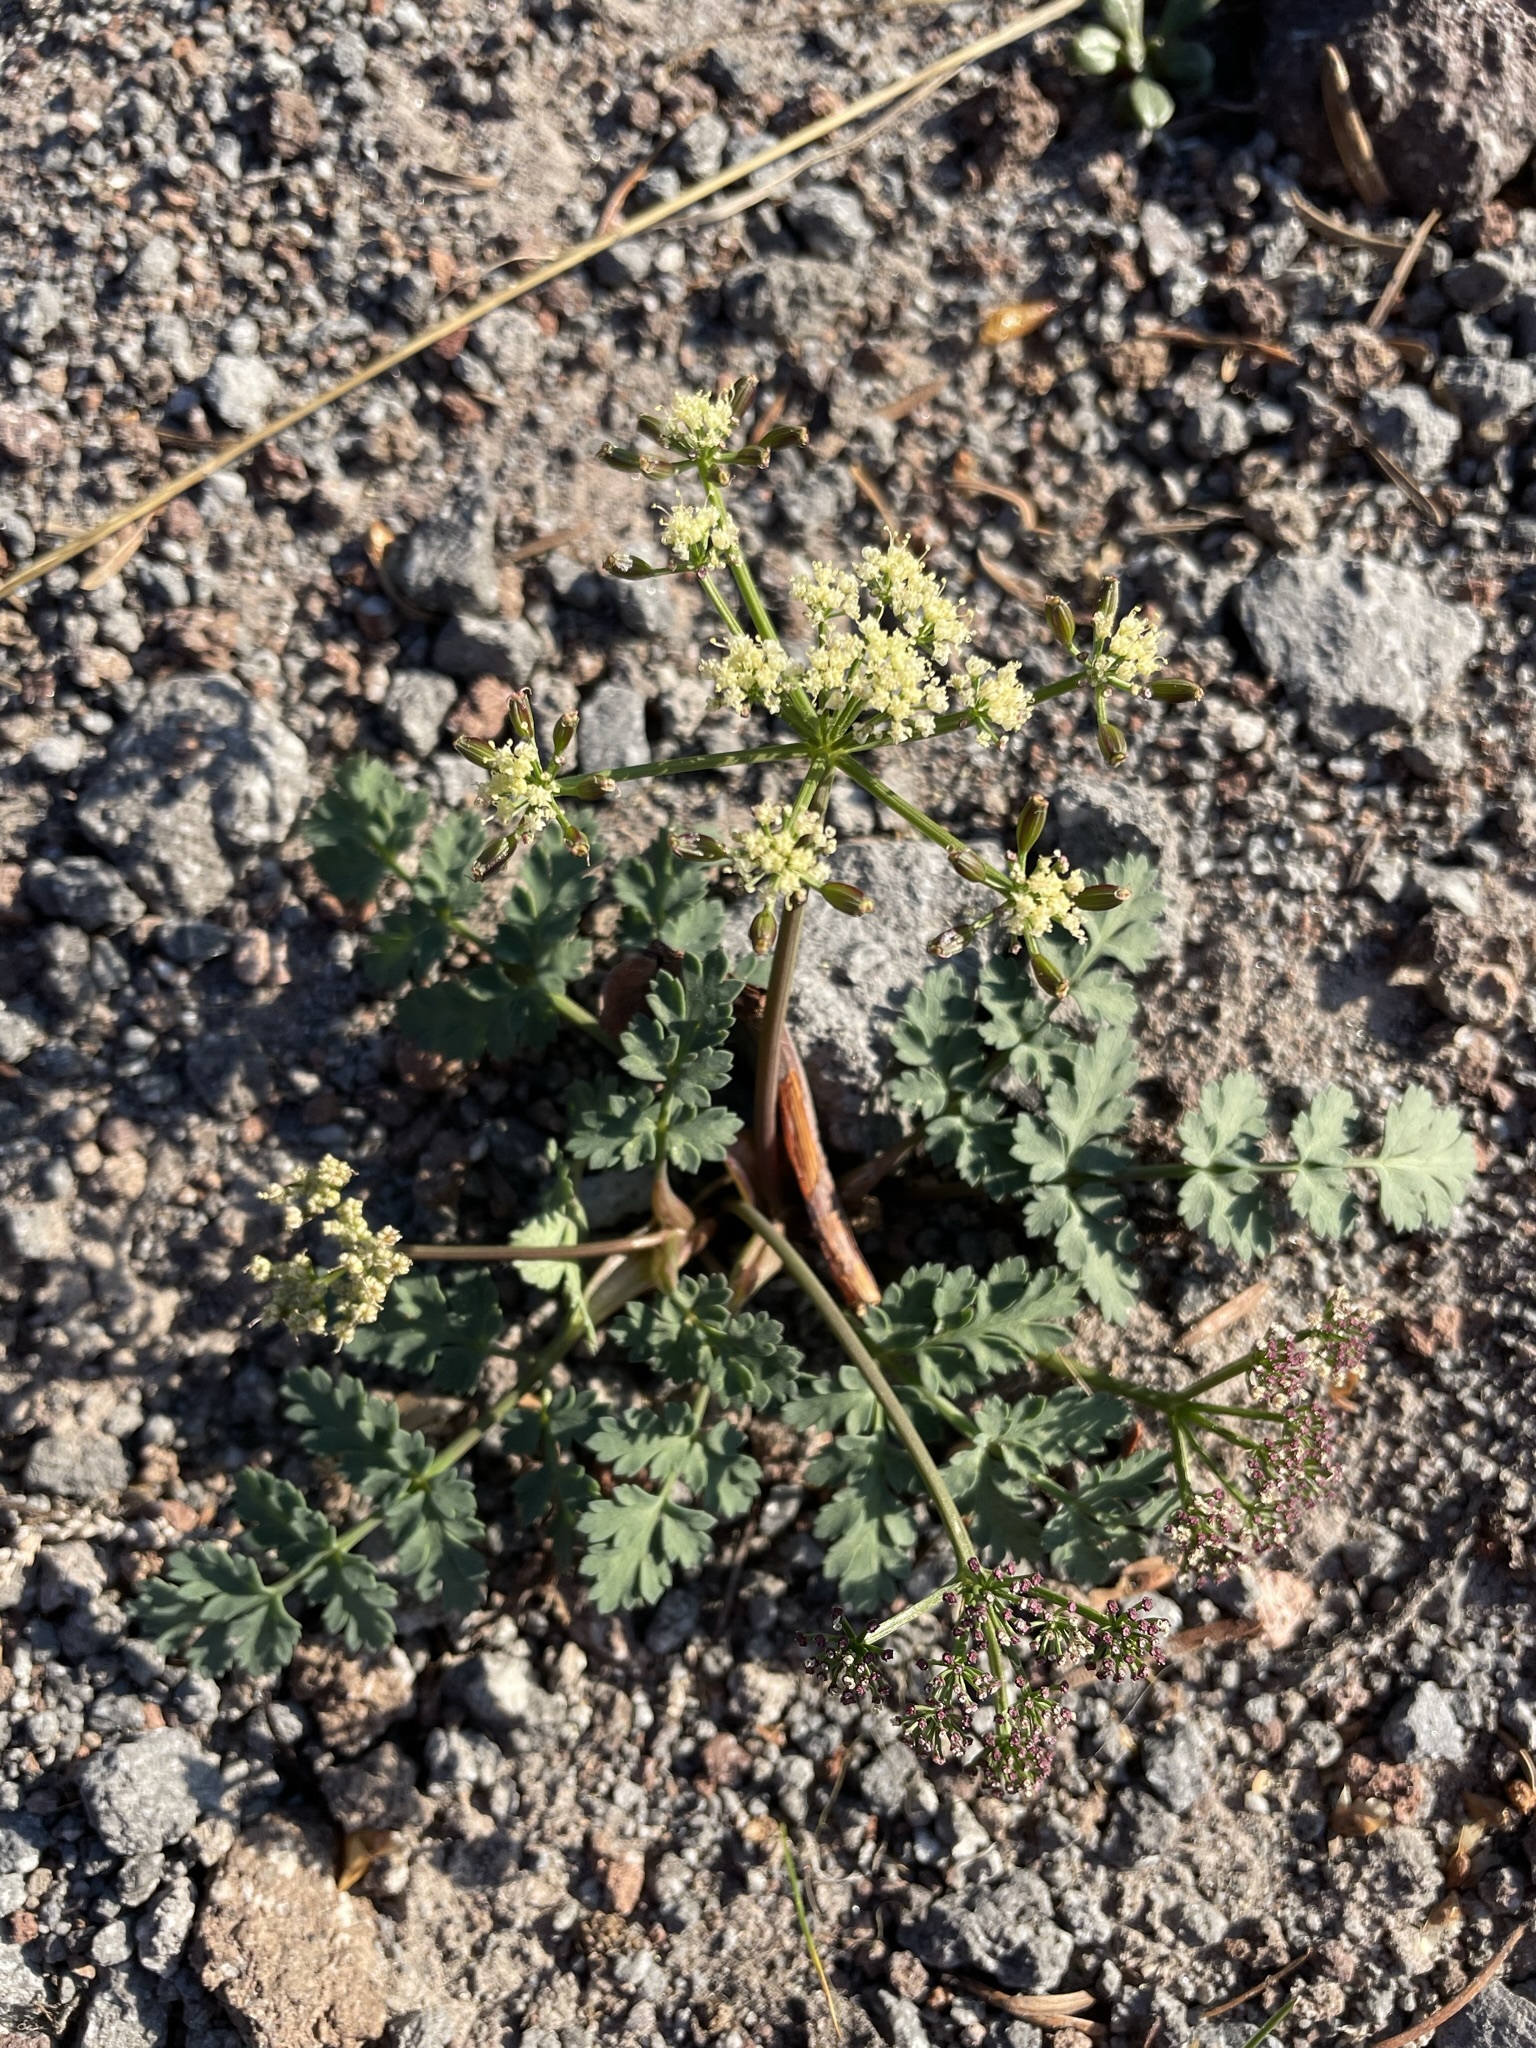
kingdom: Plantae
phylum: Tracheophyta
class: Magnoliopsida
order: Apiales
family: Apiaceae
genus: Lomatium
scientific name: Lomatium martindalei
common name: Cascade desert-parsley
